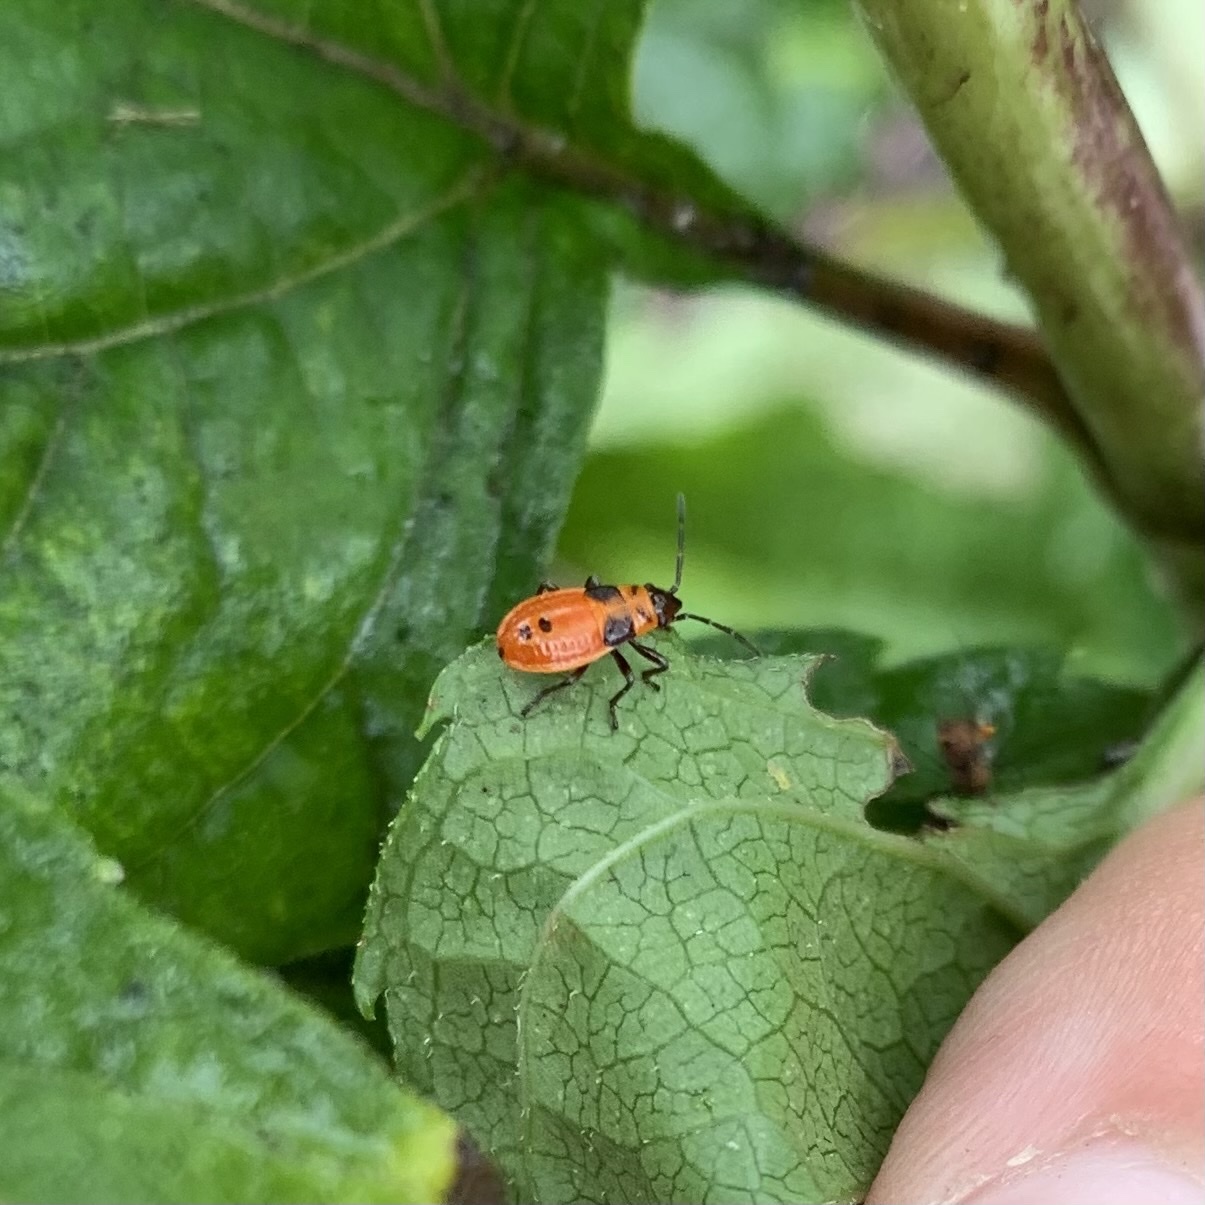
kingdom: Animalia
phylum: Arthropoda
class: Insecta
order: Hemiptera
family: Lygaeidae
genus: Lygaeus
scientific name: Lygaeus turcicus
